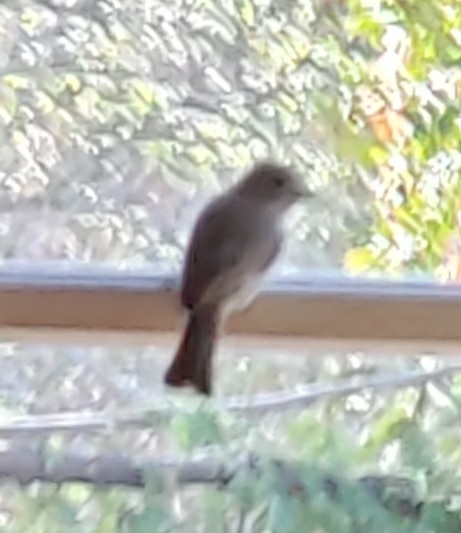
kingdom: Animalia
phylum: Chordata
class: Aves
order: Passeriformes
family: Paridae
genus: Baeolophus
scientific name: Baeolophus inornatus
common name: Oak titmouse
